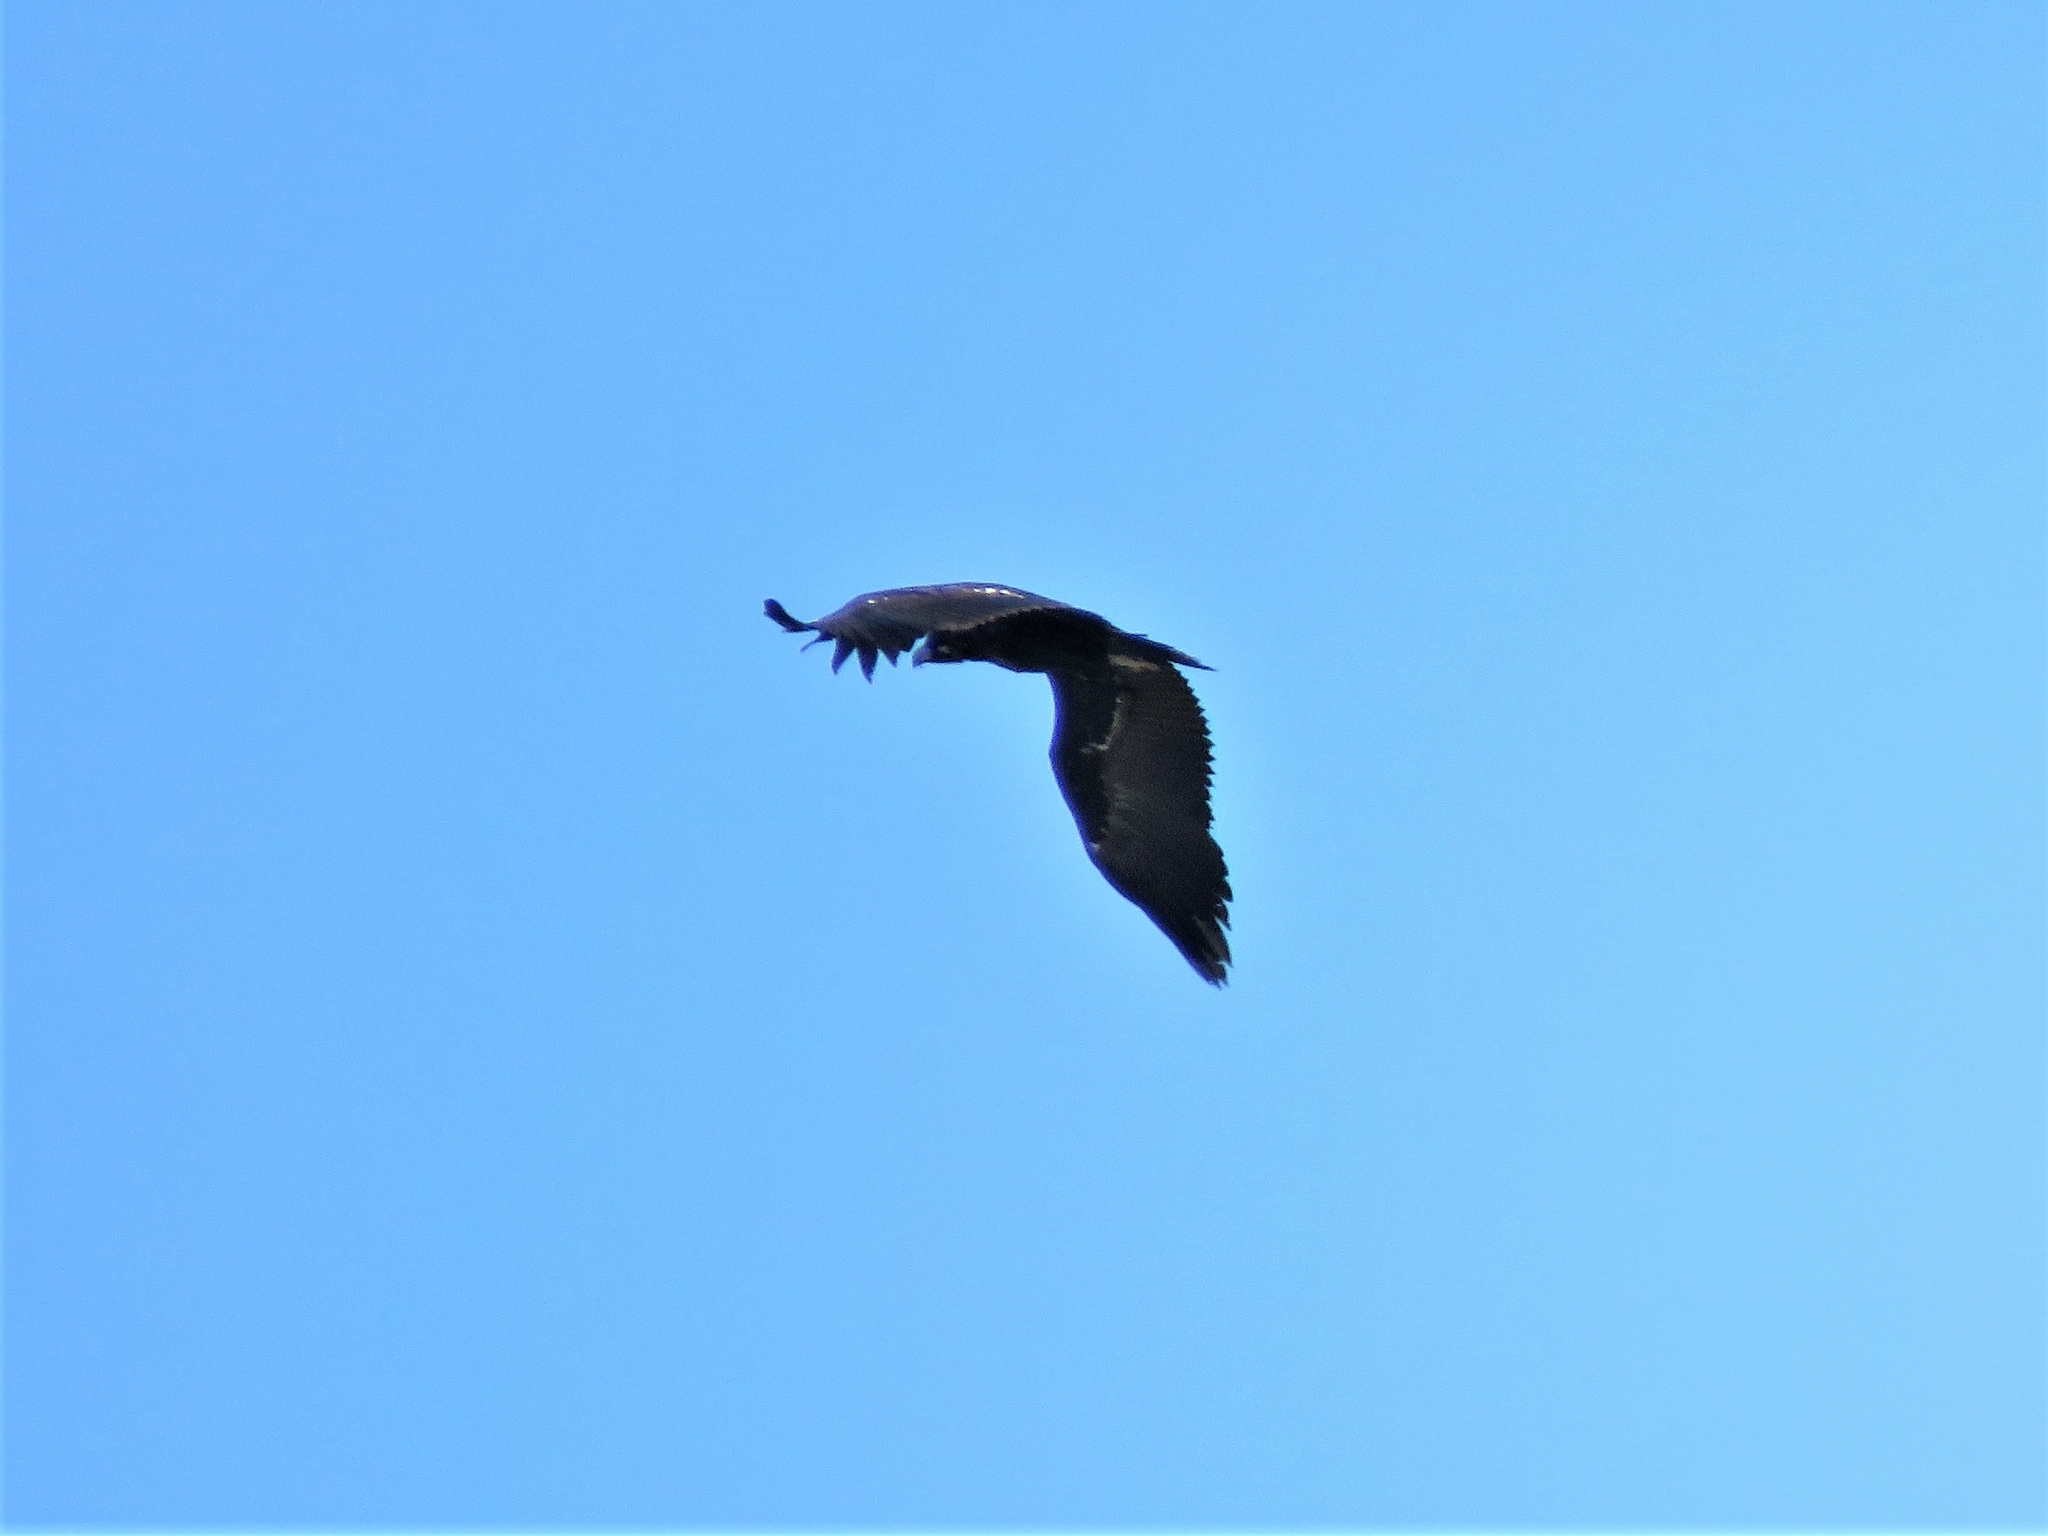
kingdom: Animalia
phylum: Chordata
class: Aves
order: Accipitriformes
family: Accipitridae
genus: Aegypius
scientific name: Aegypius monachus
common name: Cinereous vulture
